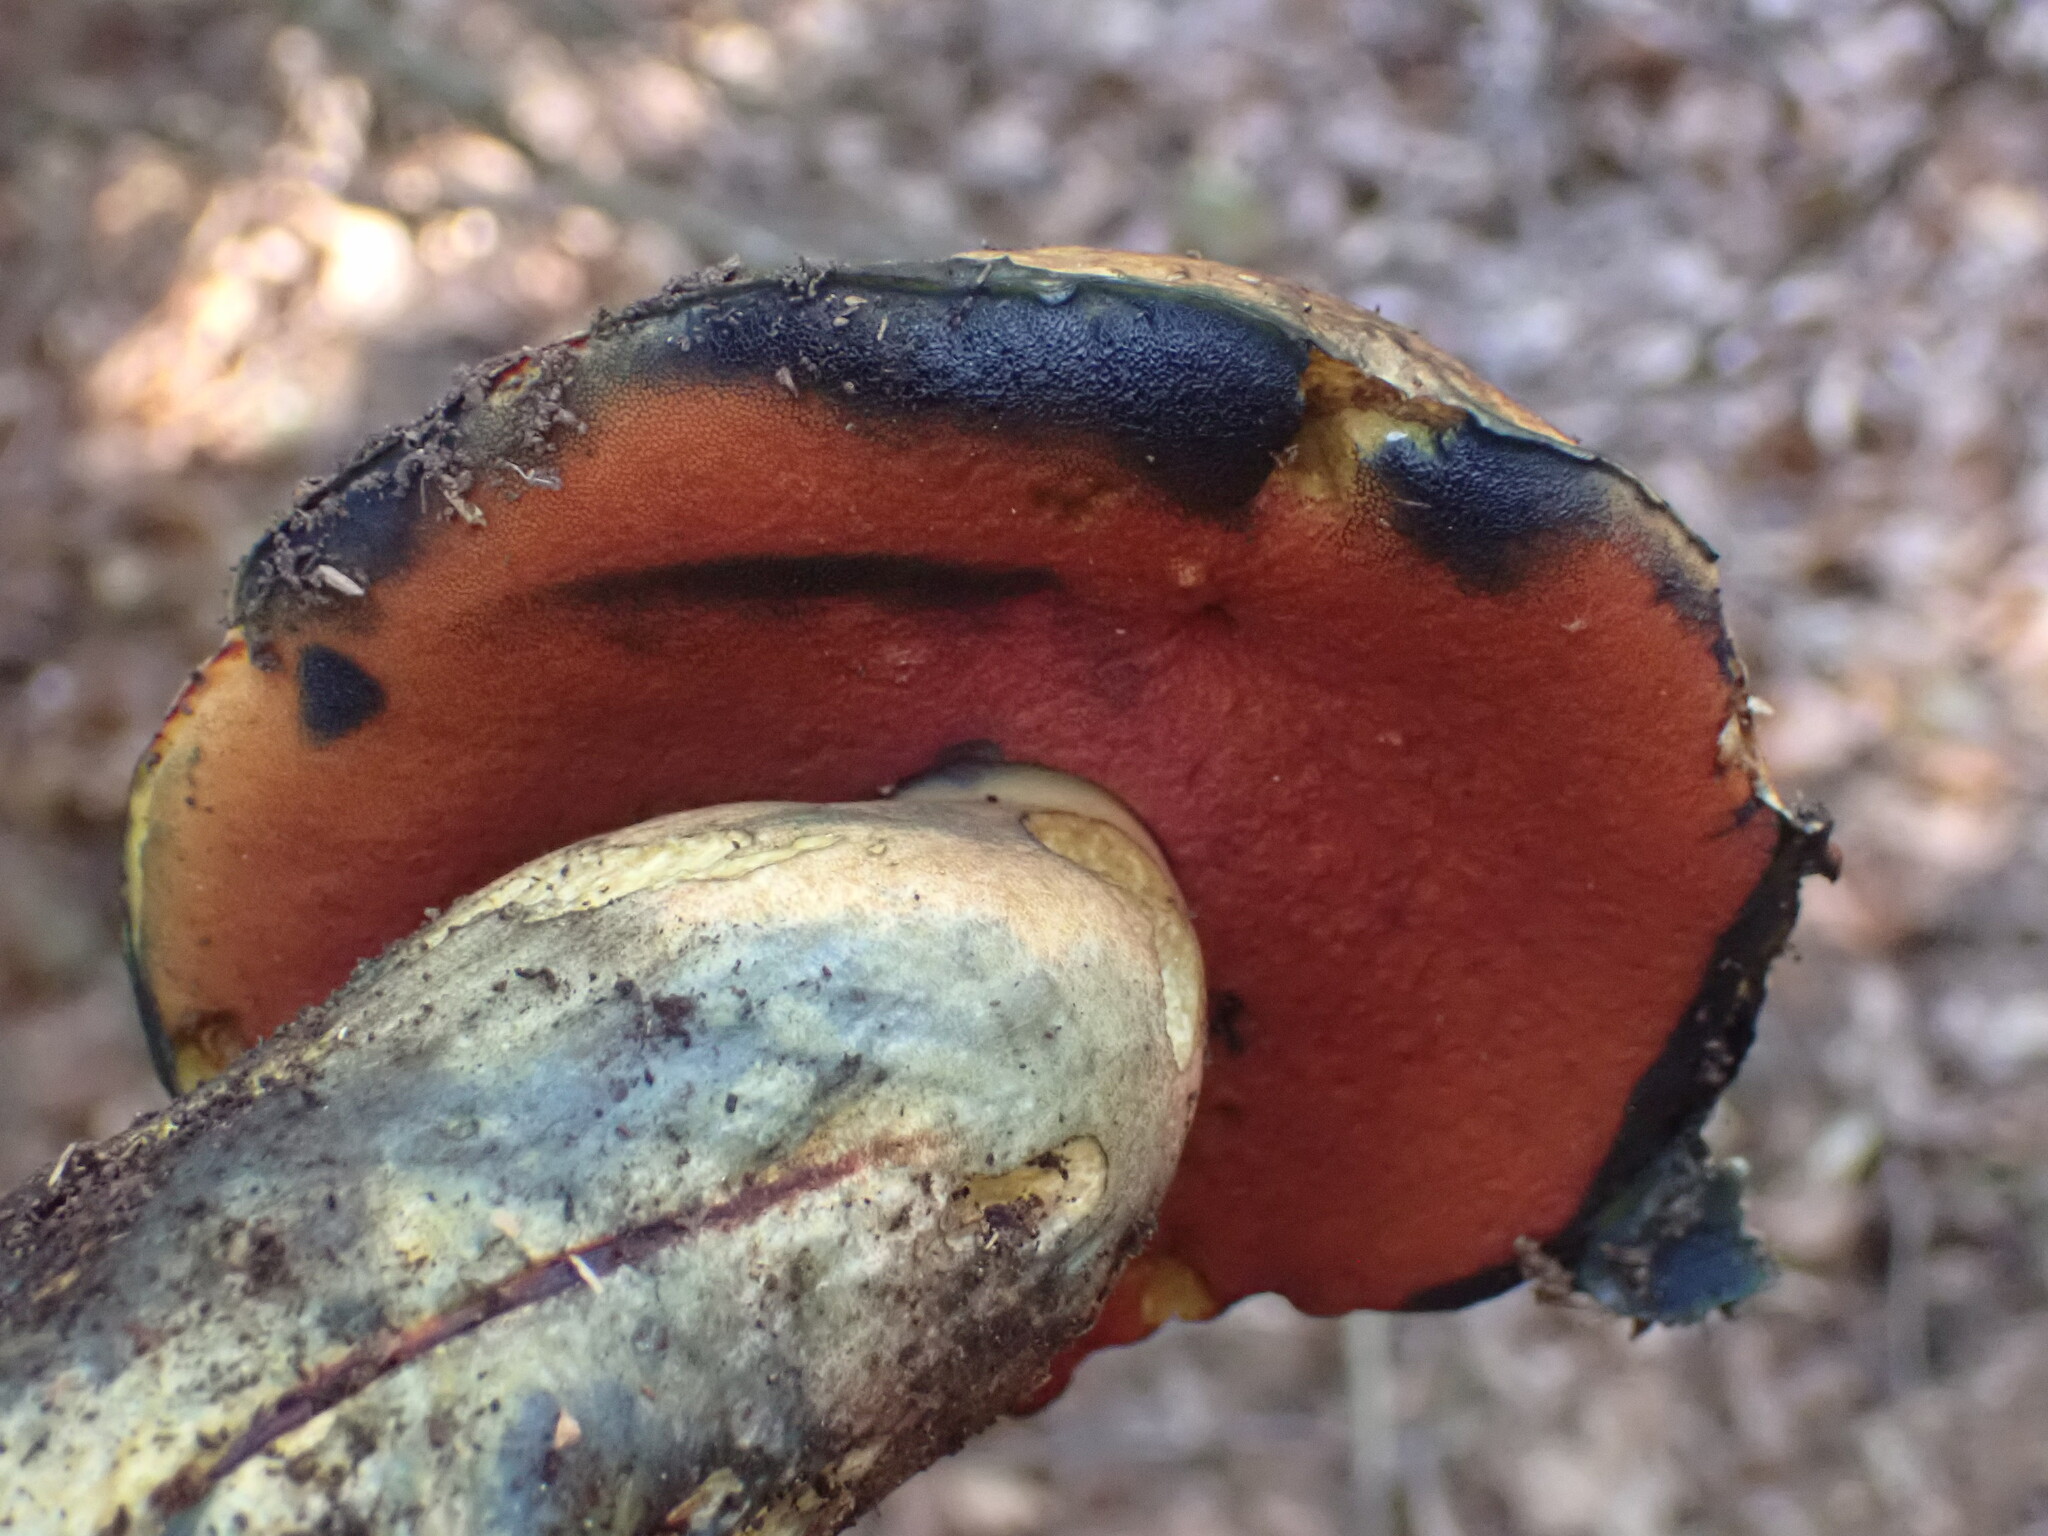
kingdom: Fungi
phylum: Basidiomycota
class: Agaricomycetes
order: Boletales
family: Boletaceae
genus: Neoboletus
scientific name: Neoboletus erythropus
